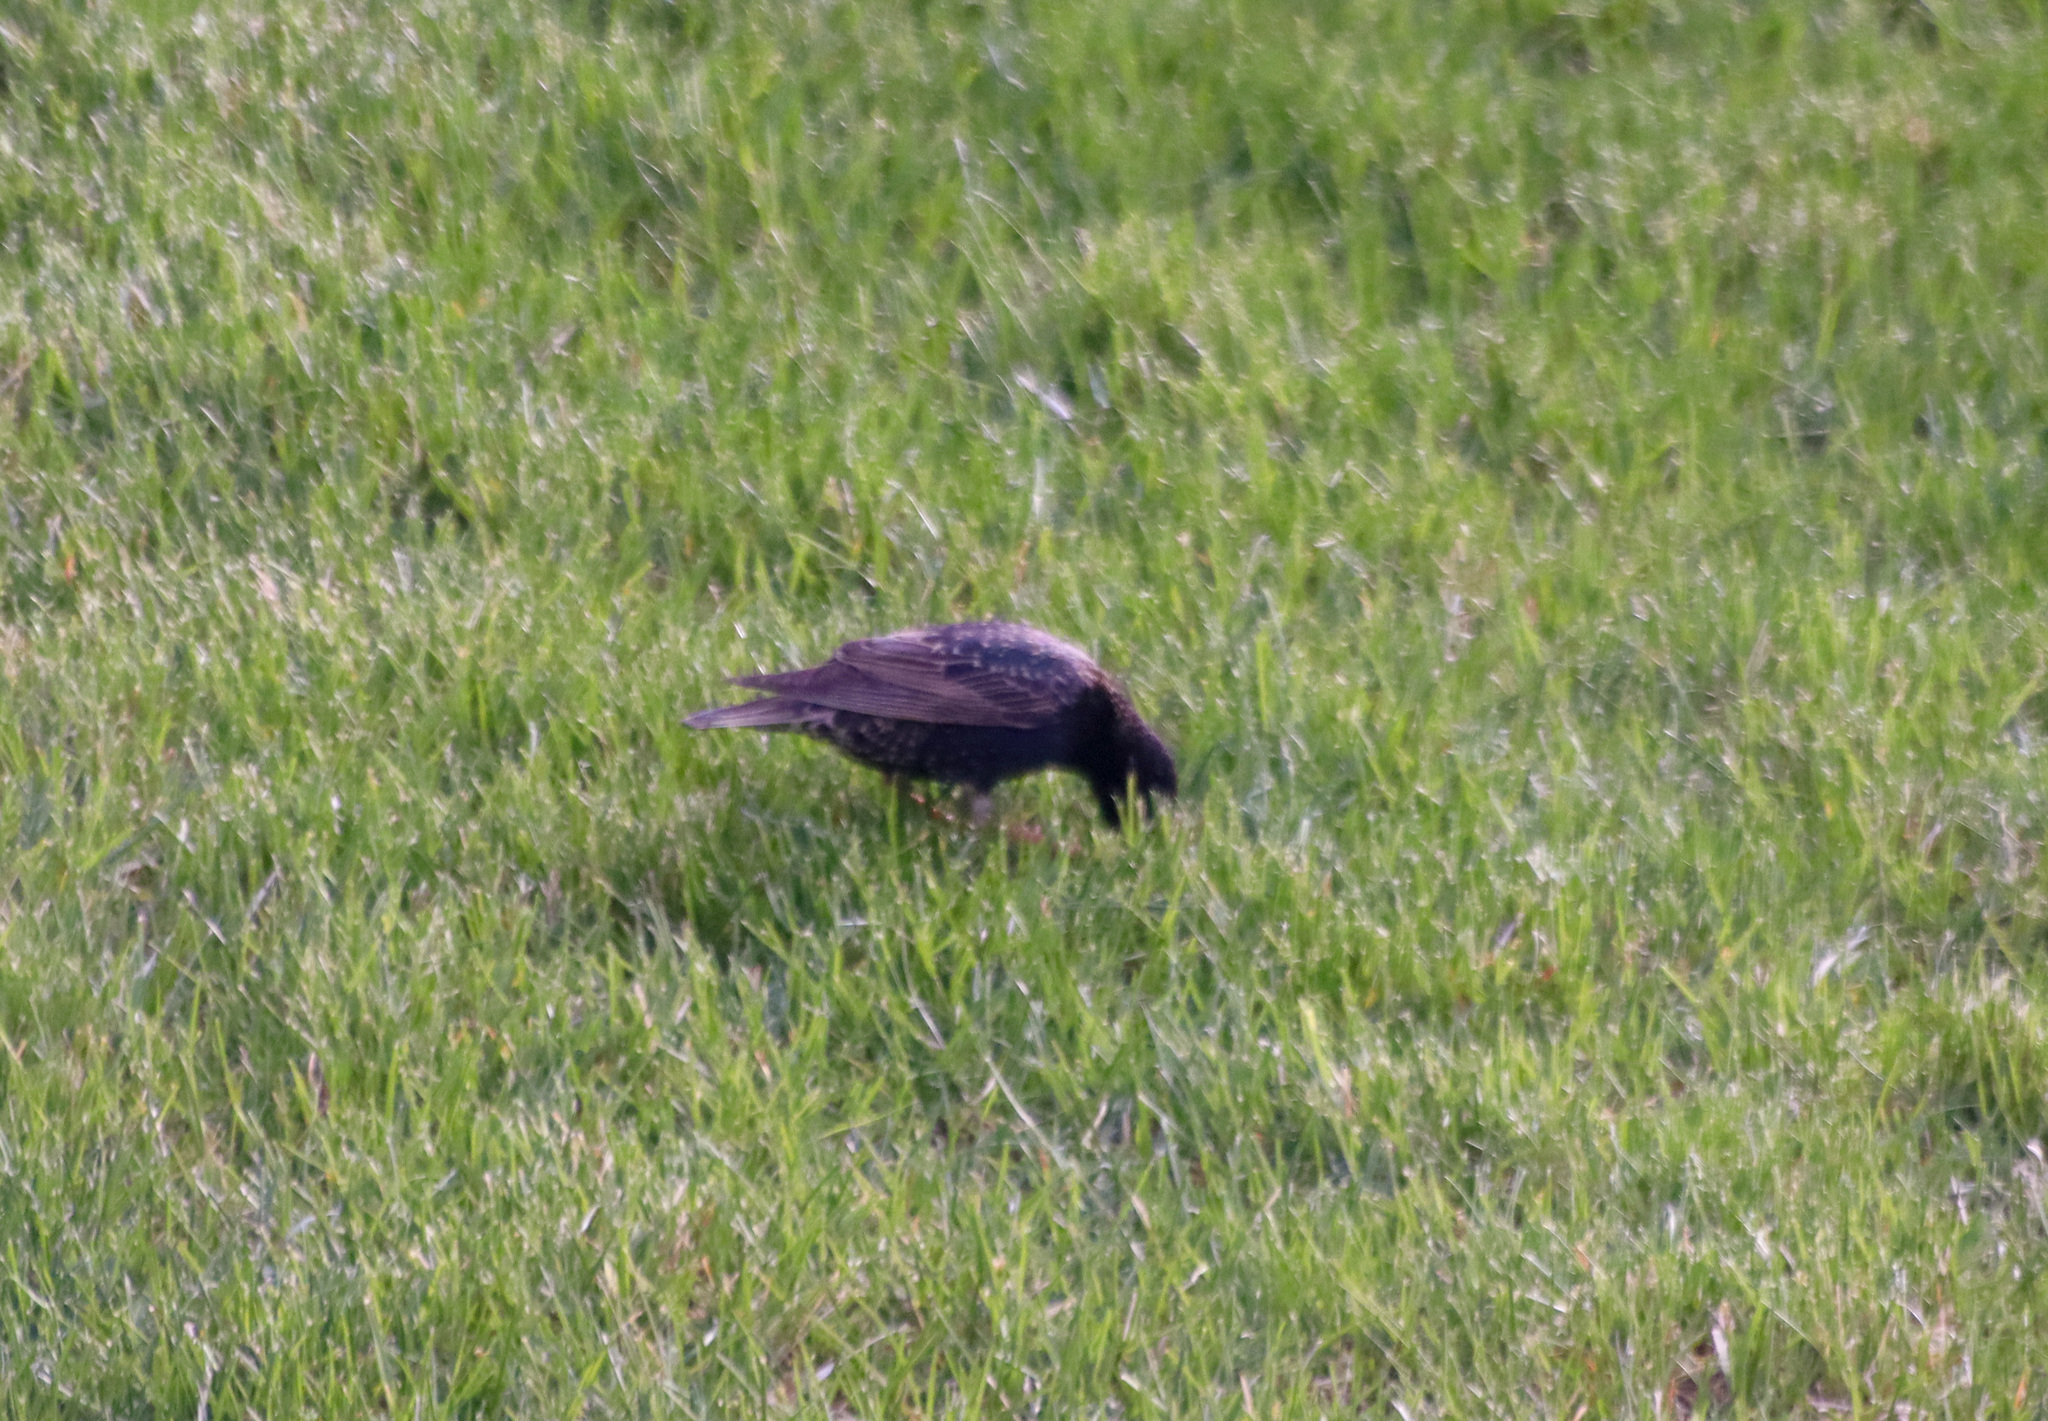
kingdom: Animalia
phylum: Chordata
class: Aves
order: Passeriformes
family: Sturnidae
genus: Sturnus
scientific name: Sturnus vulgaris
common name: Common starling
